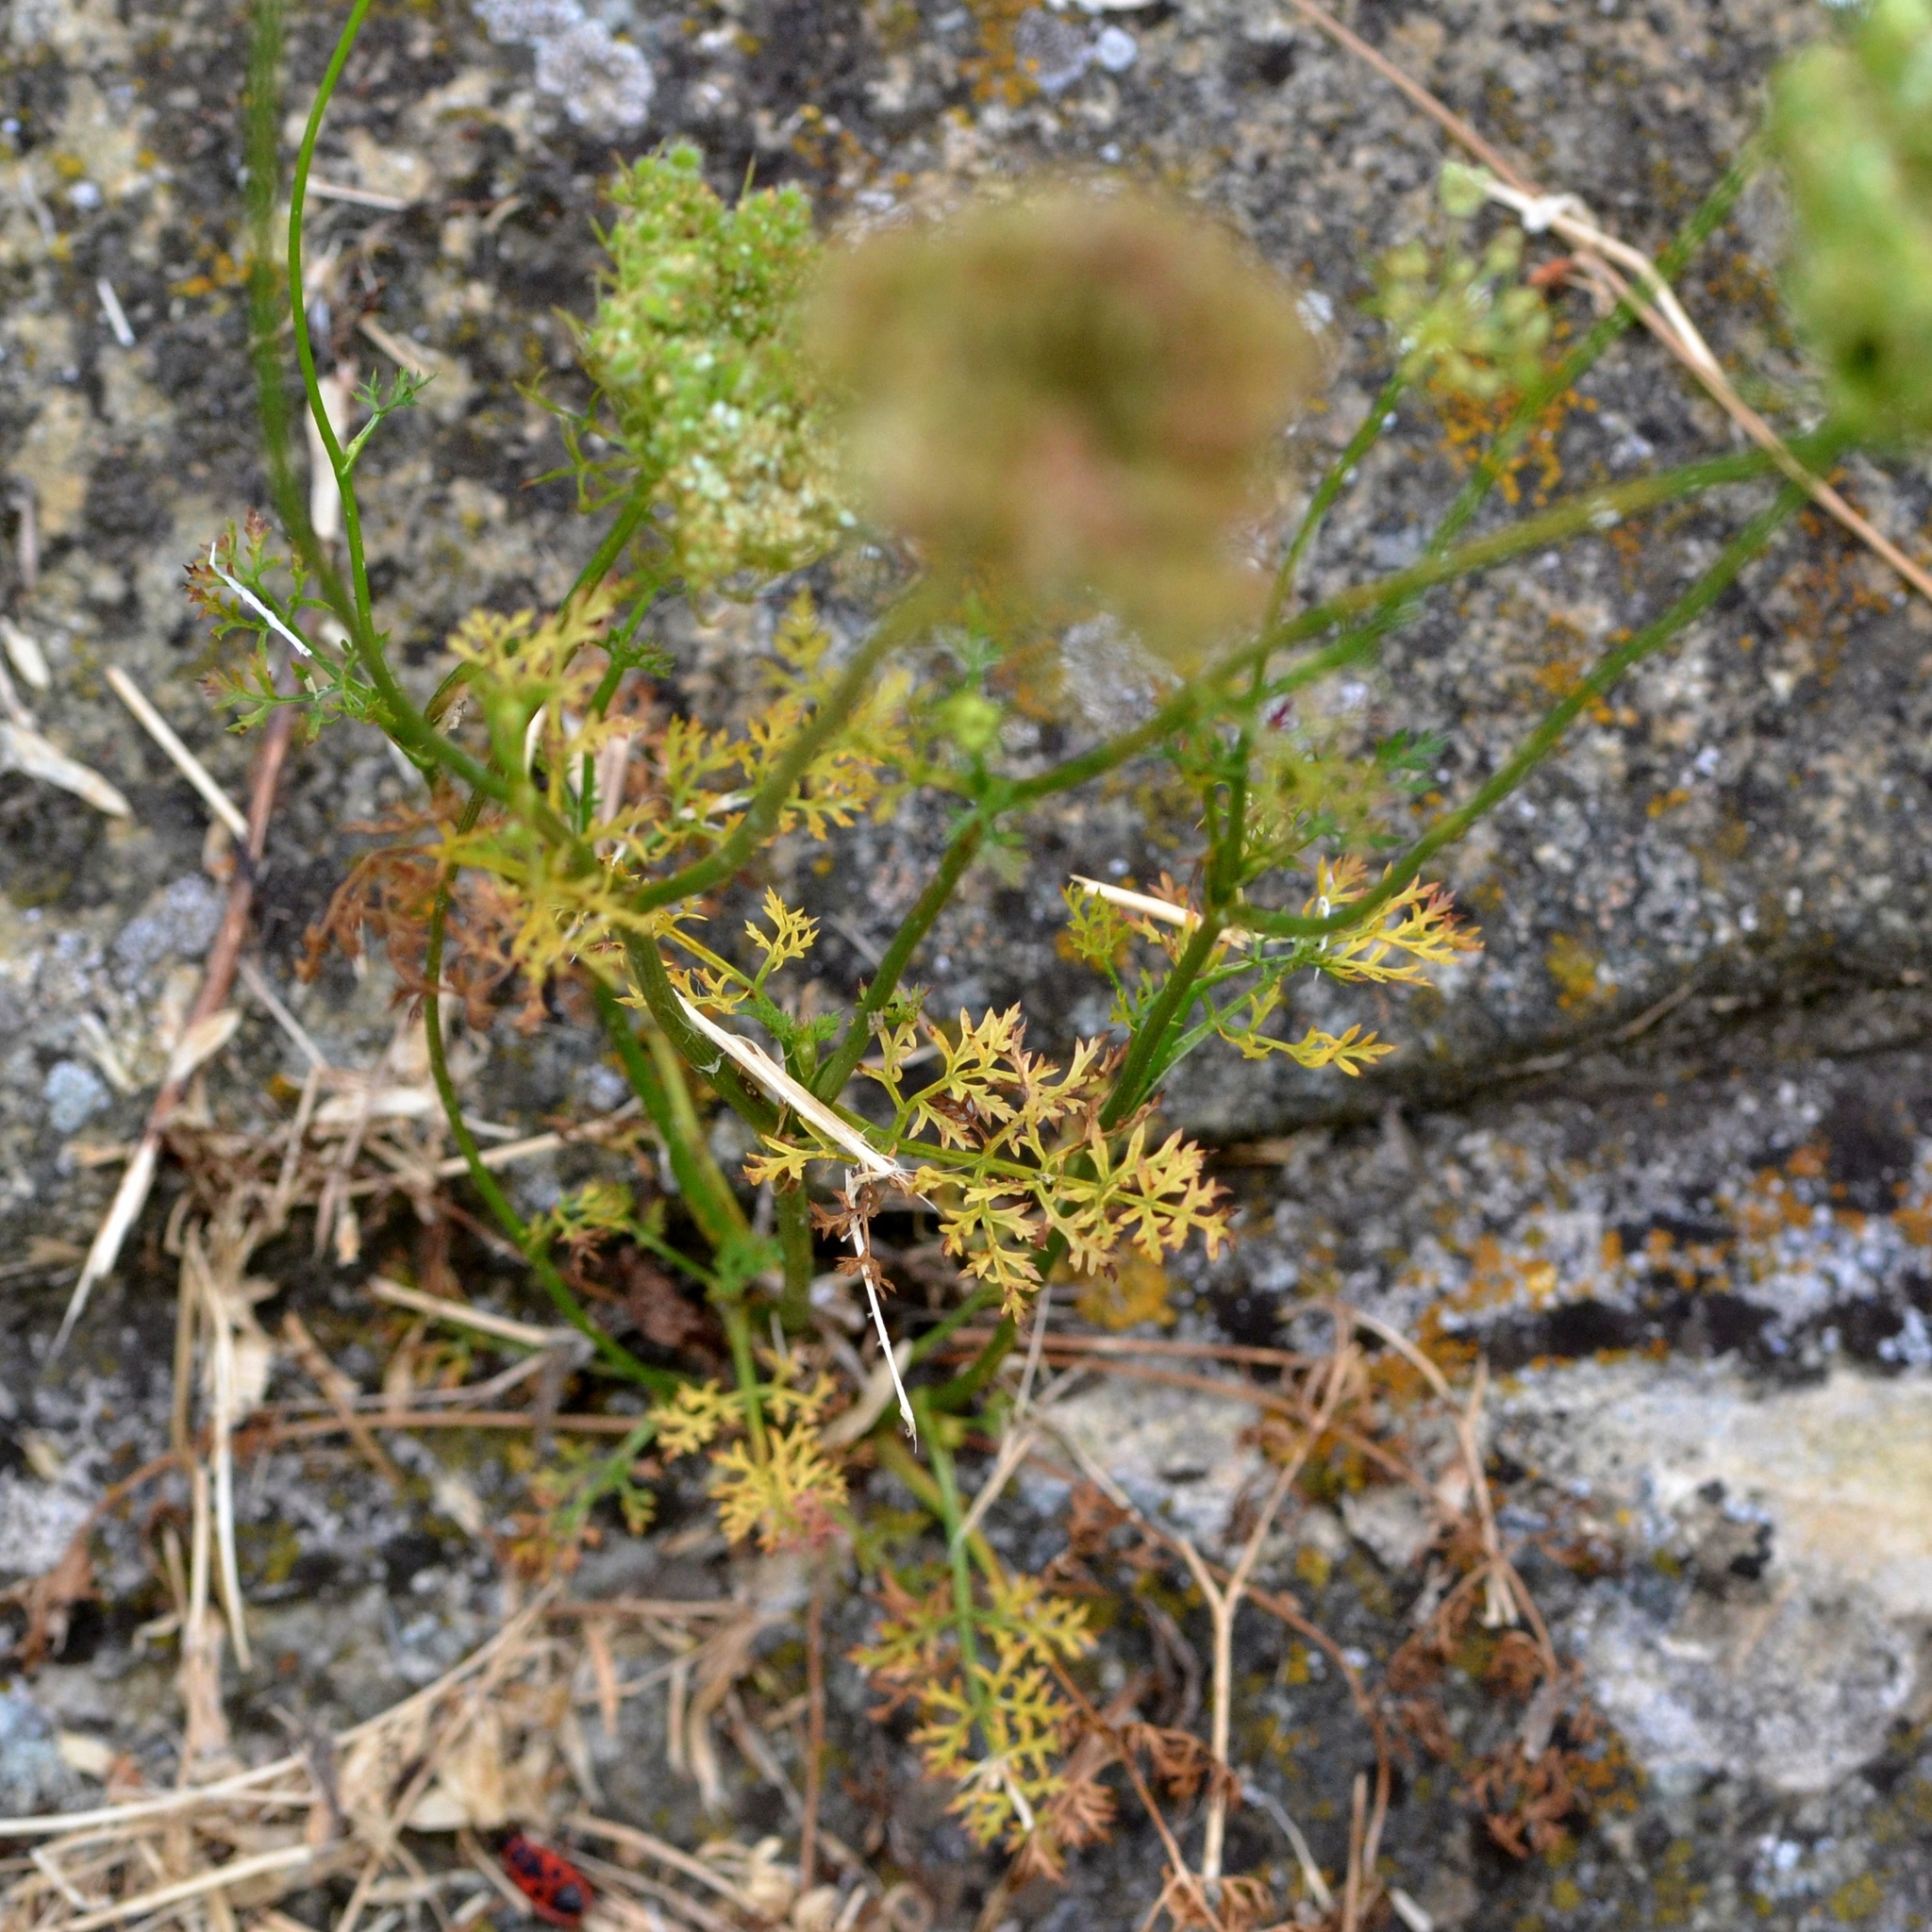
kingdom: Plantae
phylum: Tracheophyta
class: Magnoliopsida
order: Apiales
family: Apiaceae
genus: Daucus
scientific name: Daucus carota
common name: Wild carrot
